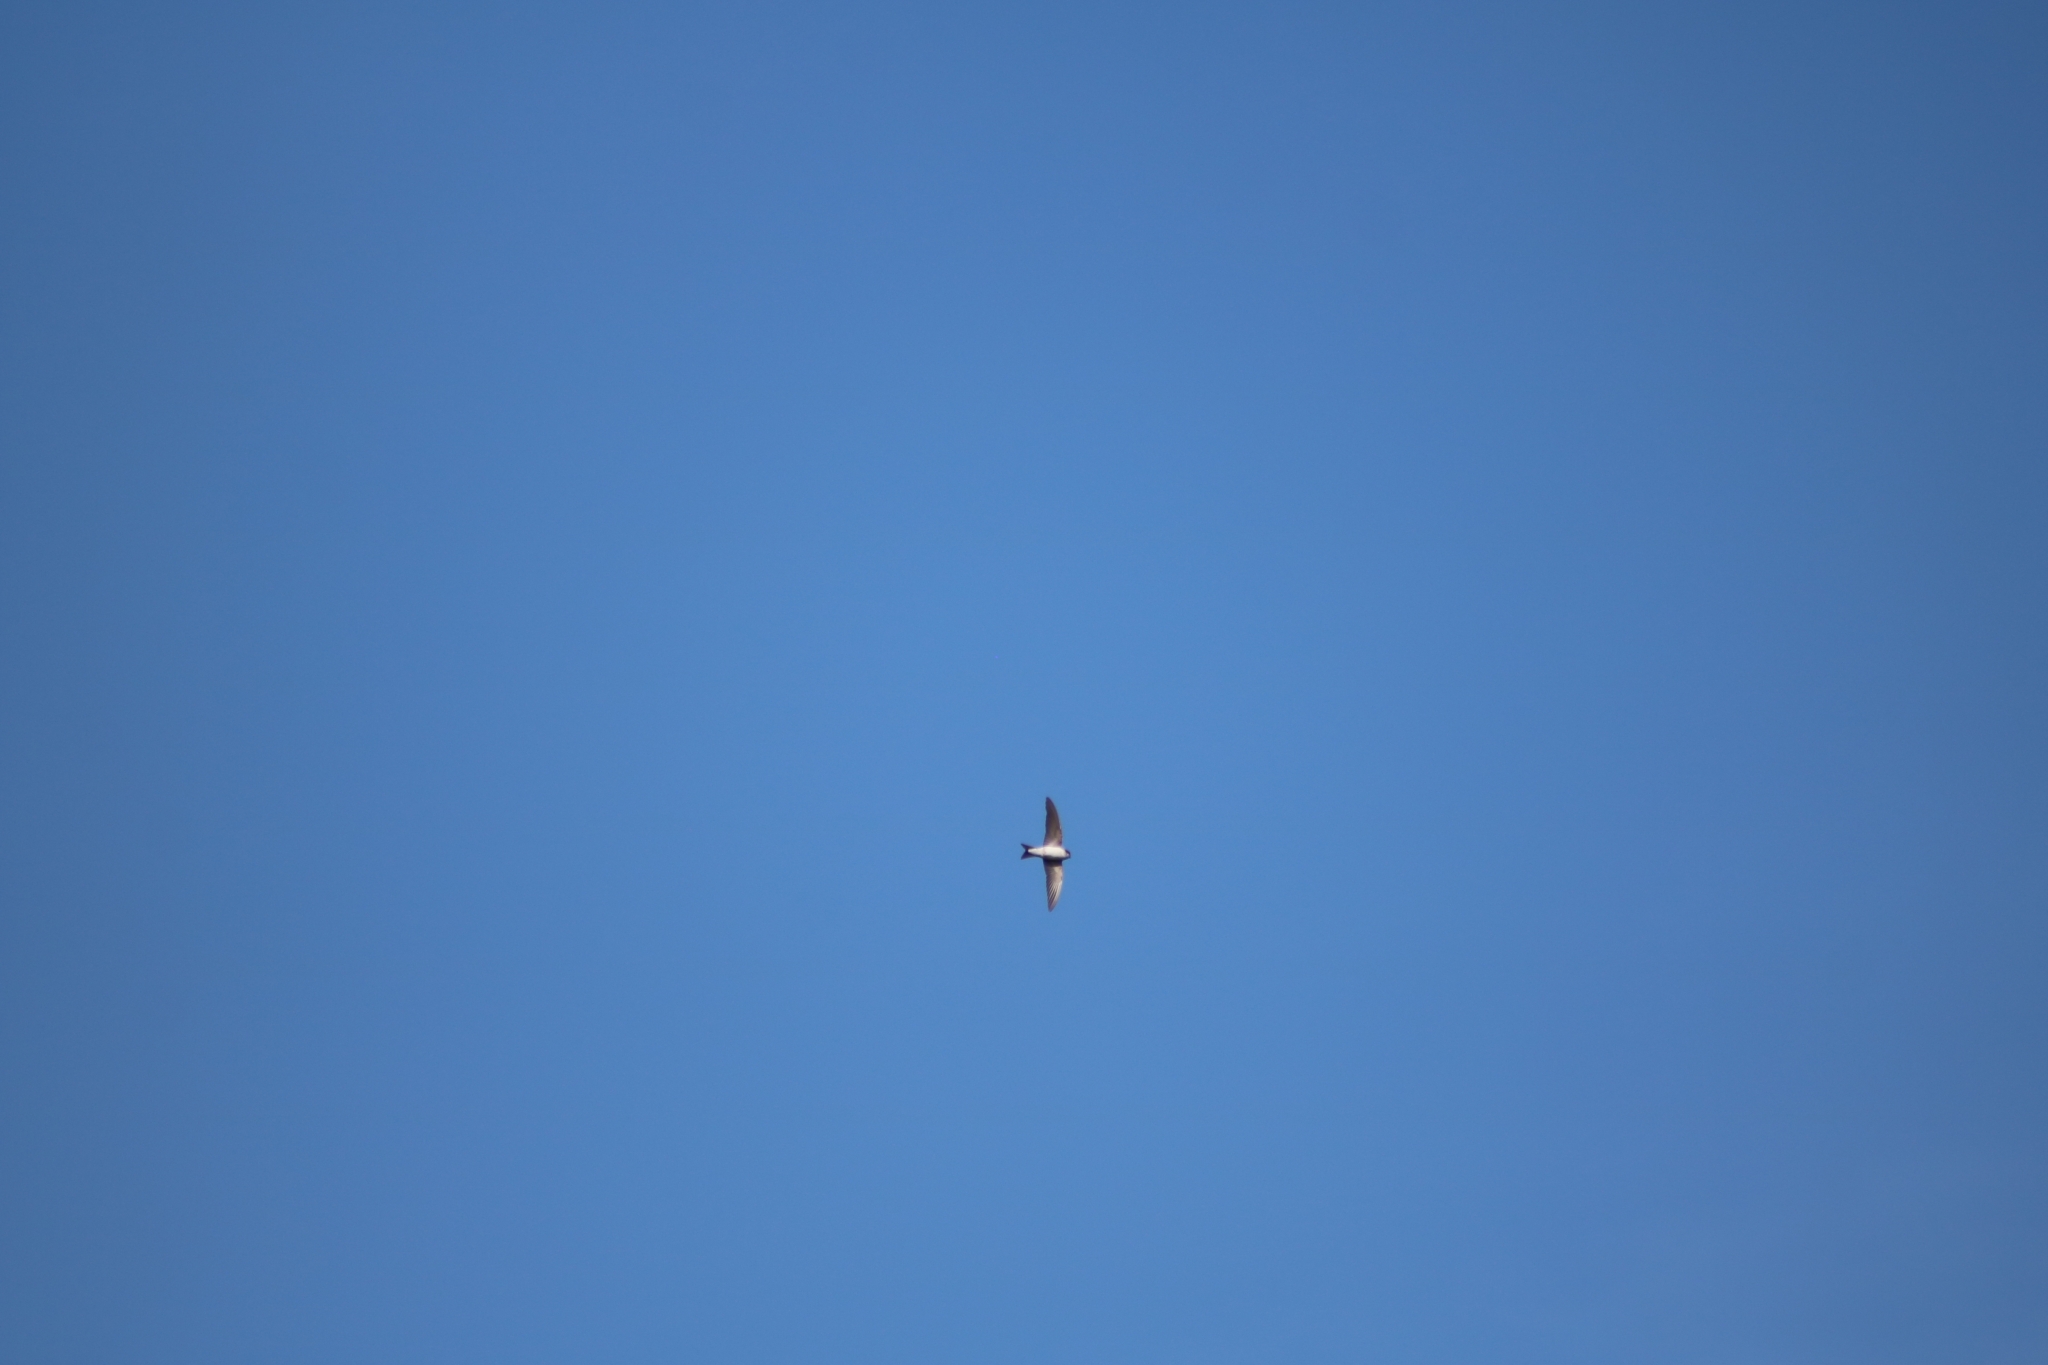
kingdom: Animalia
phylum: Chordata
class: Aves
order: Passeriformes
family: Hirundinidae
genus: Delichon
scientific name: Delichon urbicum
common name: Common house martin
